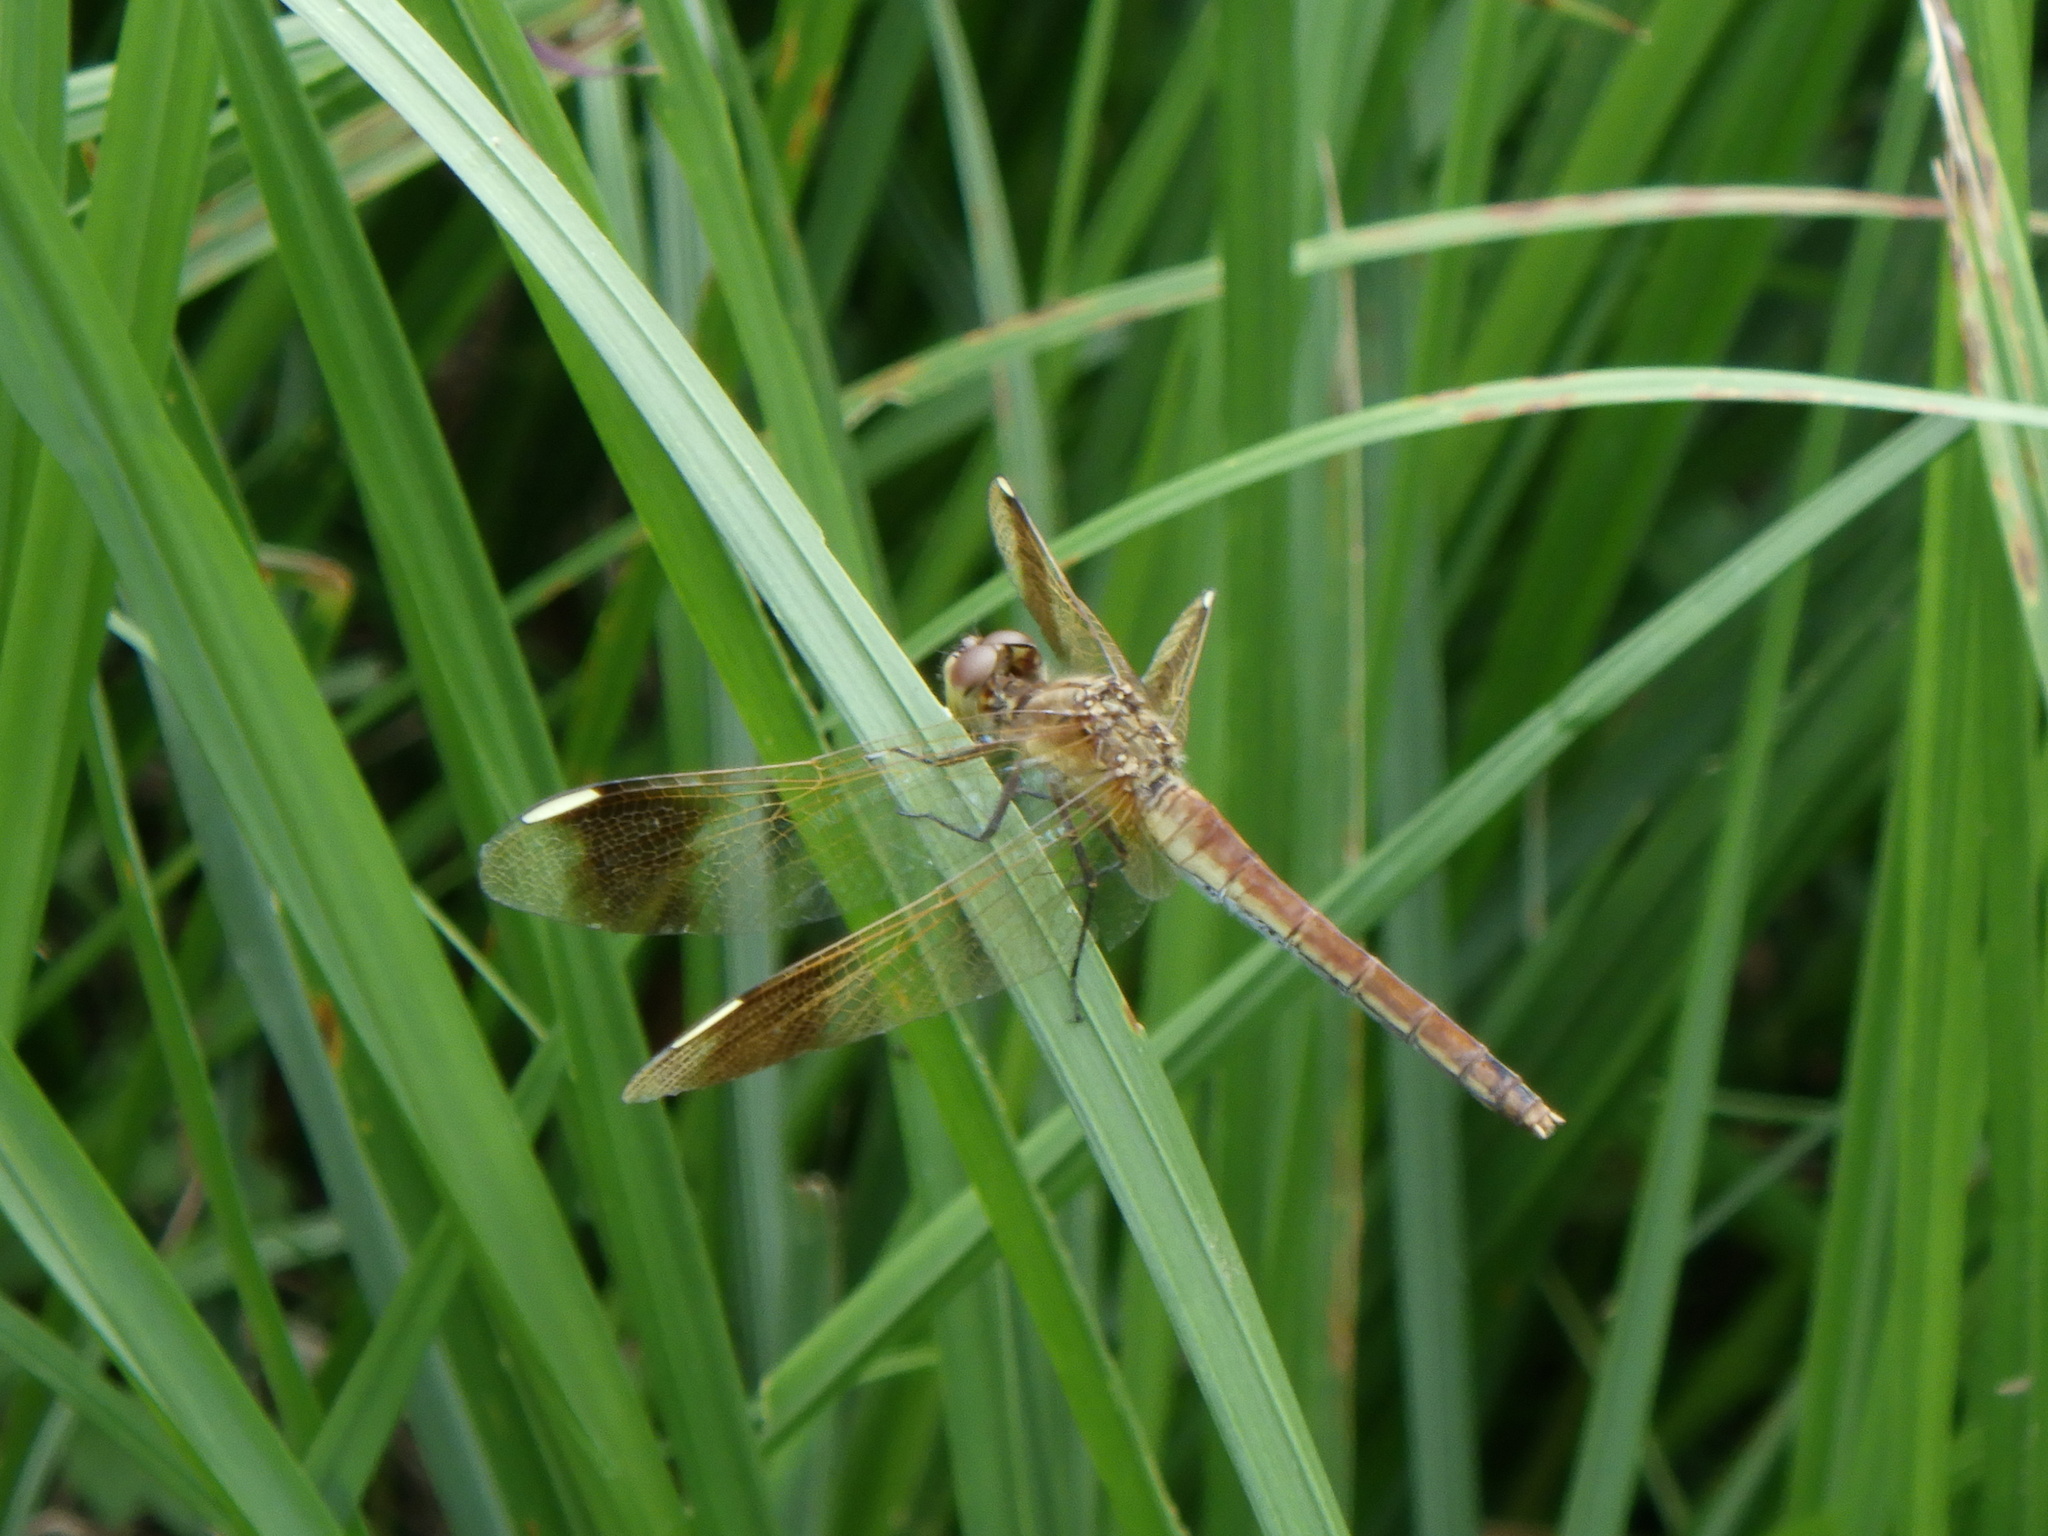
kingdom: Animalia
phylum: Arthropoda
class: Insecta
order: Odonata
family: Libellulidae
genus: Sympetrum
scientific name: Sympetrum pedemontanum
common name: Banded darter
